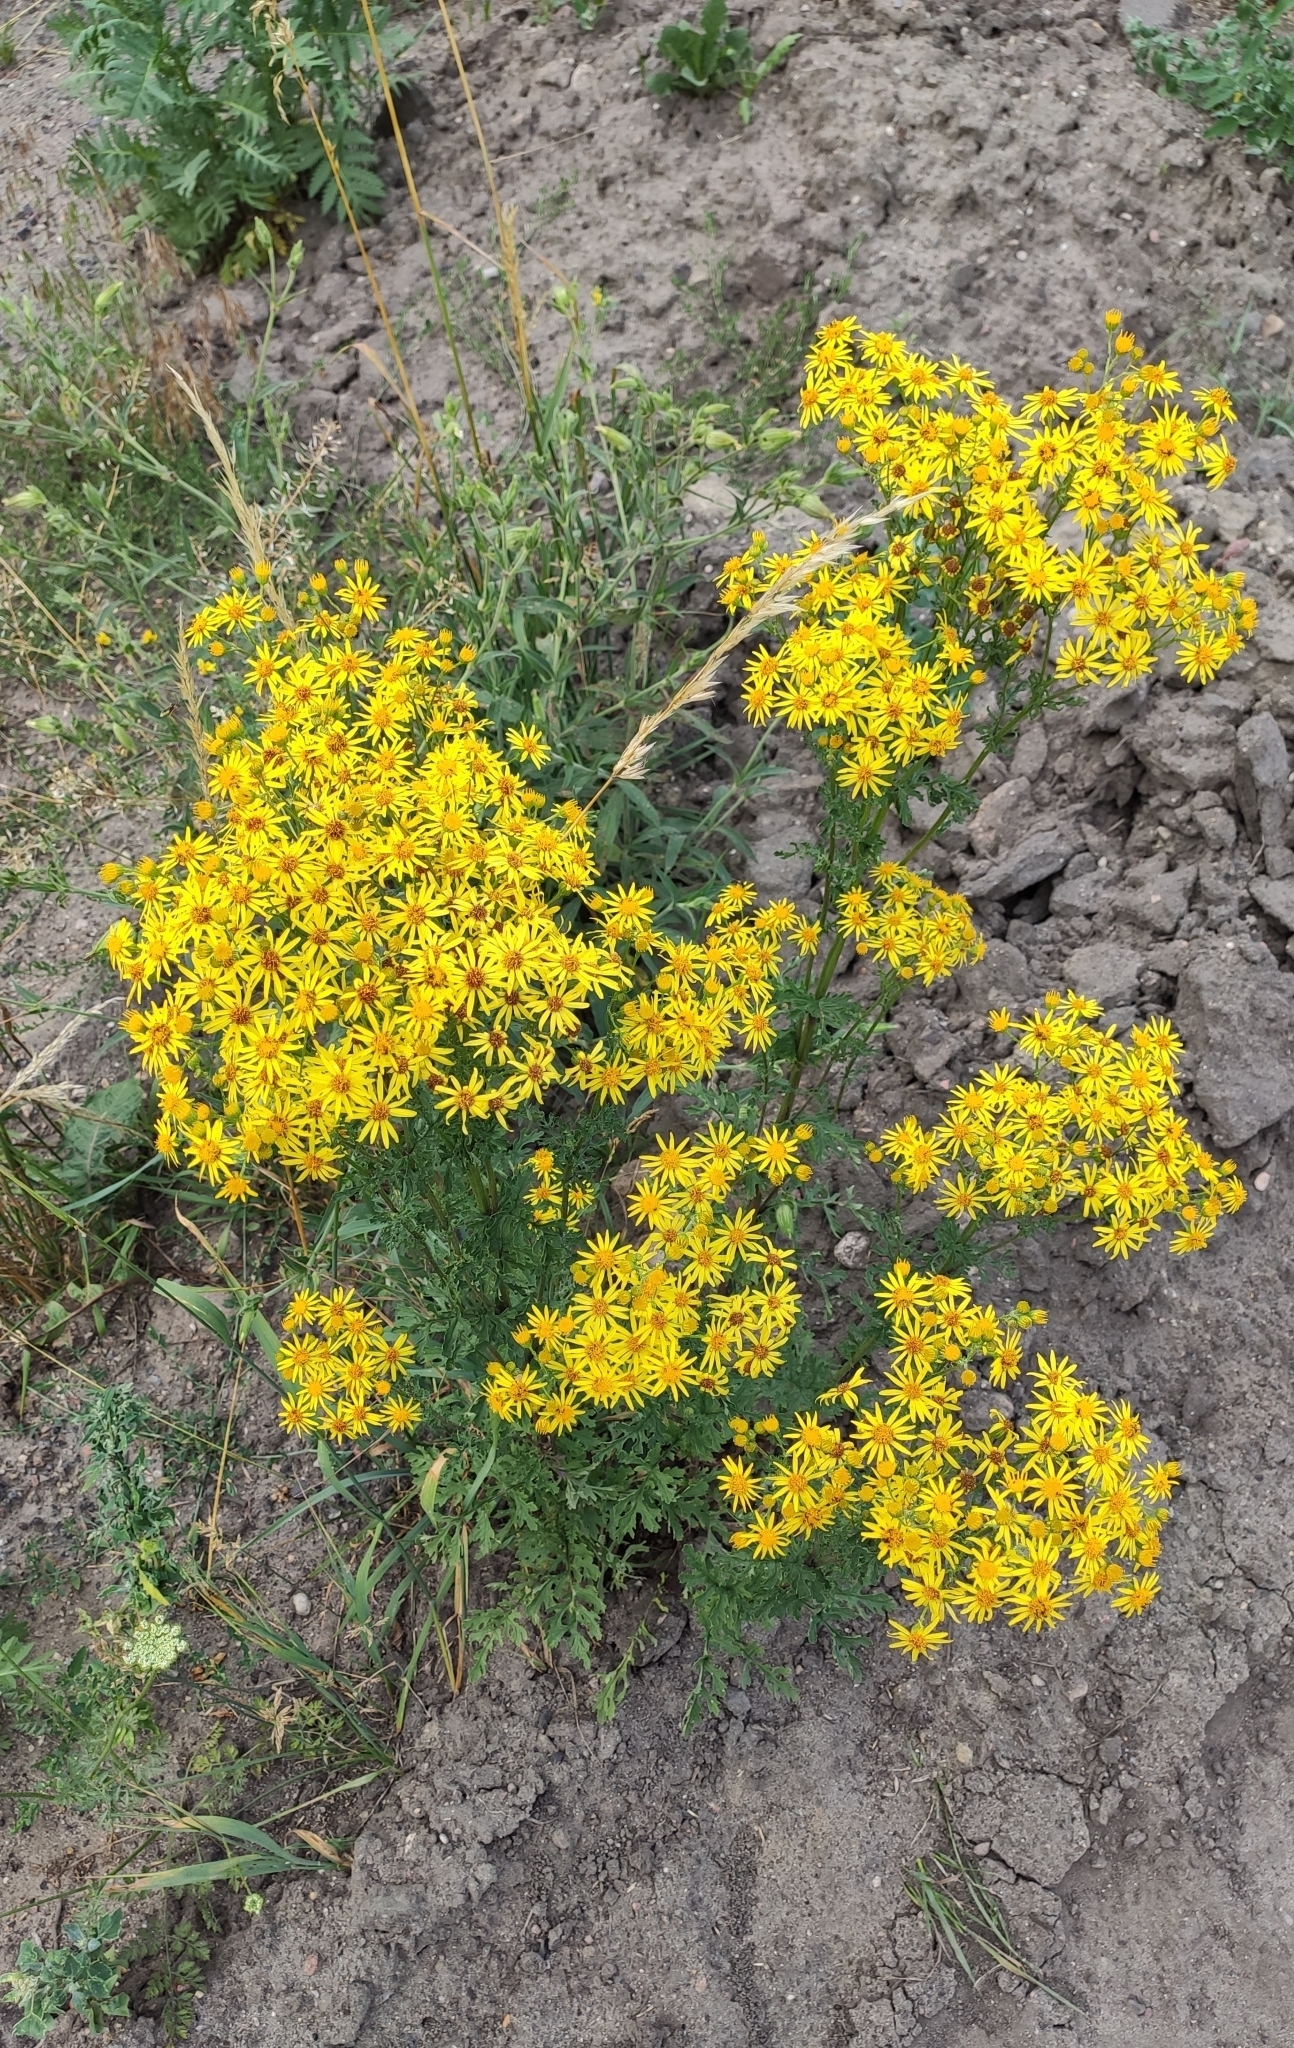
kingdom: Plantae
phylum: Tracheophyta
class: Magnoliopsida
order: Asterales
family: Asteraceae
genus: Jacobaea
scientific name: Jacobaea vulgaris
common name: Stinking willie
